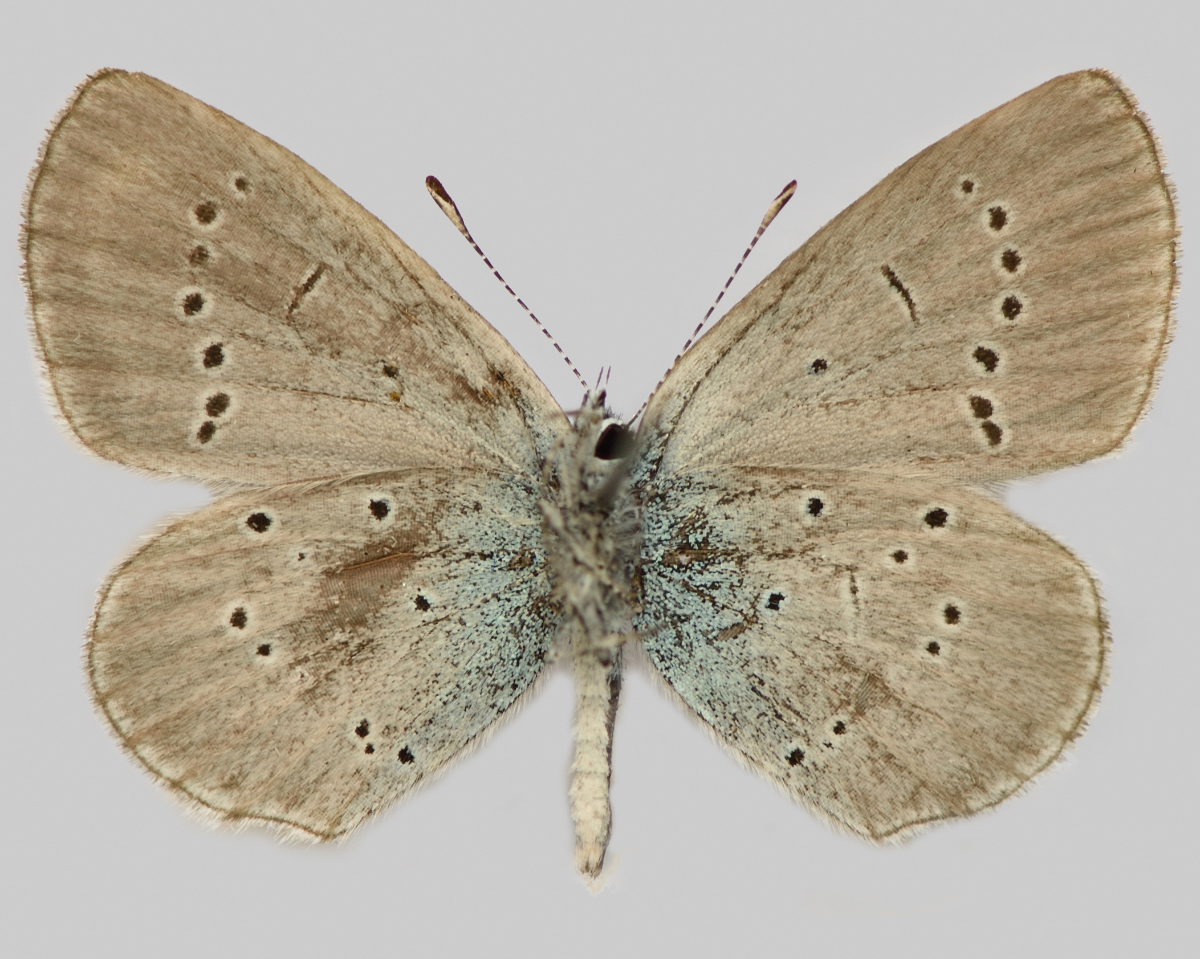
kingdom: Animalia
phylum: Arthropoda
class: Insecta
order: Lepidoptera
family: Lycaenidae
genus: Everes
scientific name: Everes sebrus
